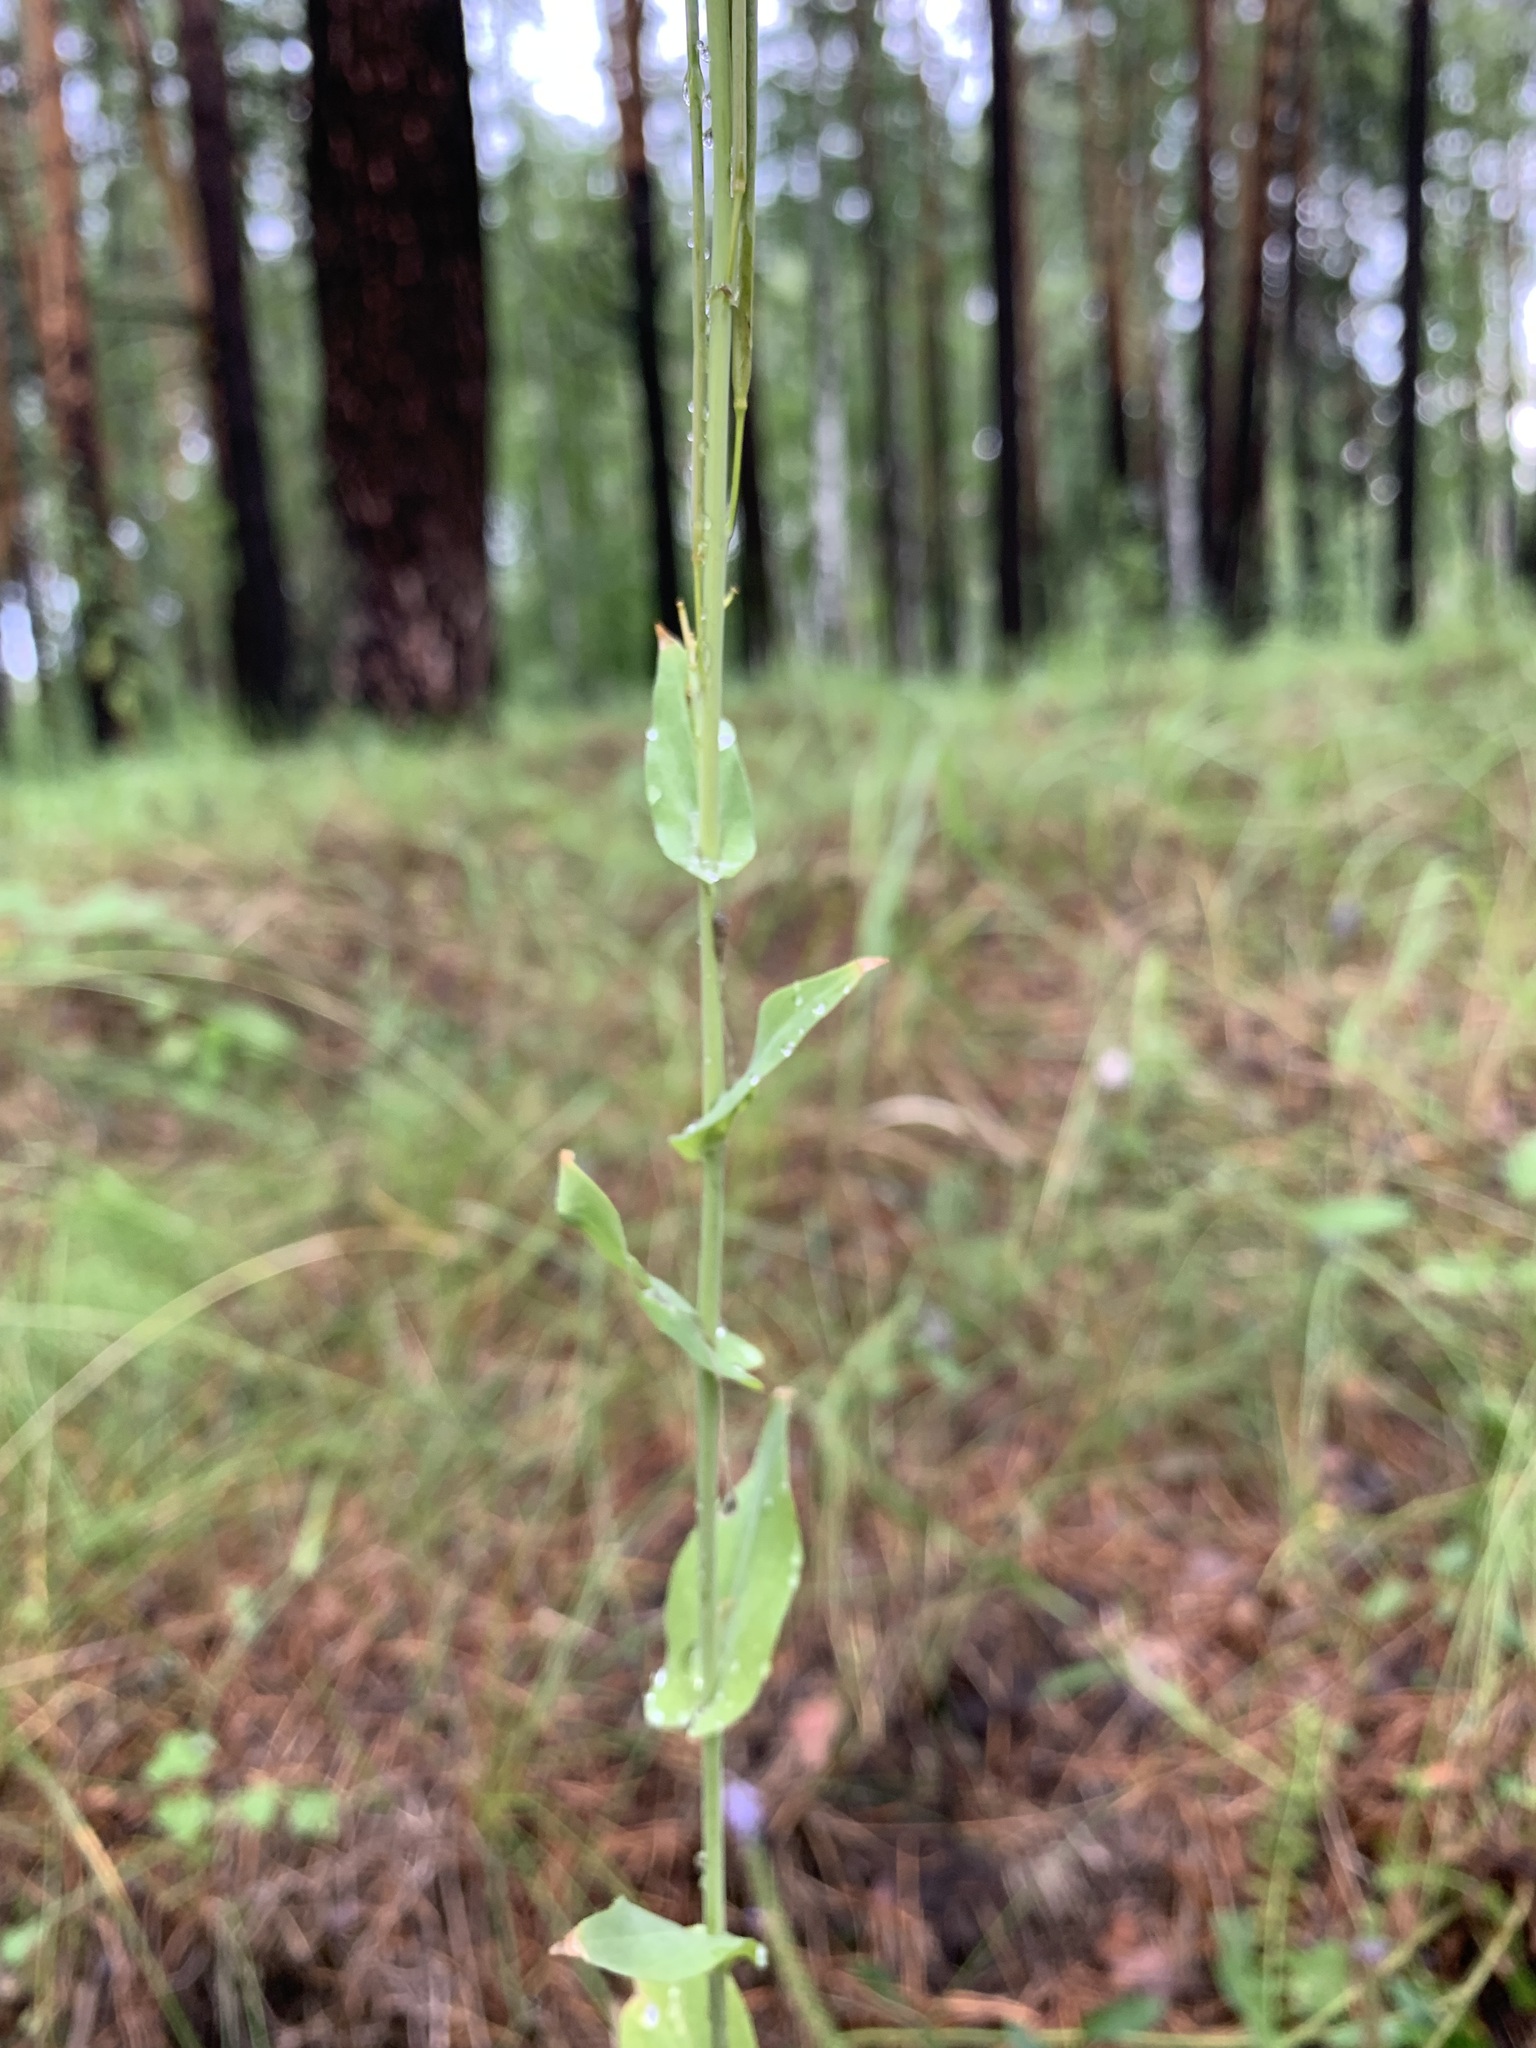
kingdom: Plantae
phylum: Tracheophyta
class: Magnoliopsida
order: Brassicales
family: Brassicaceae
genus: Turritis
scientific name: Turritis glabra
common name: Tower rockcress
